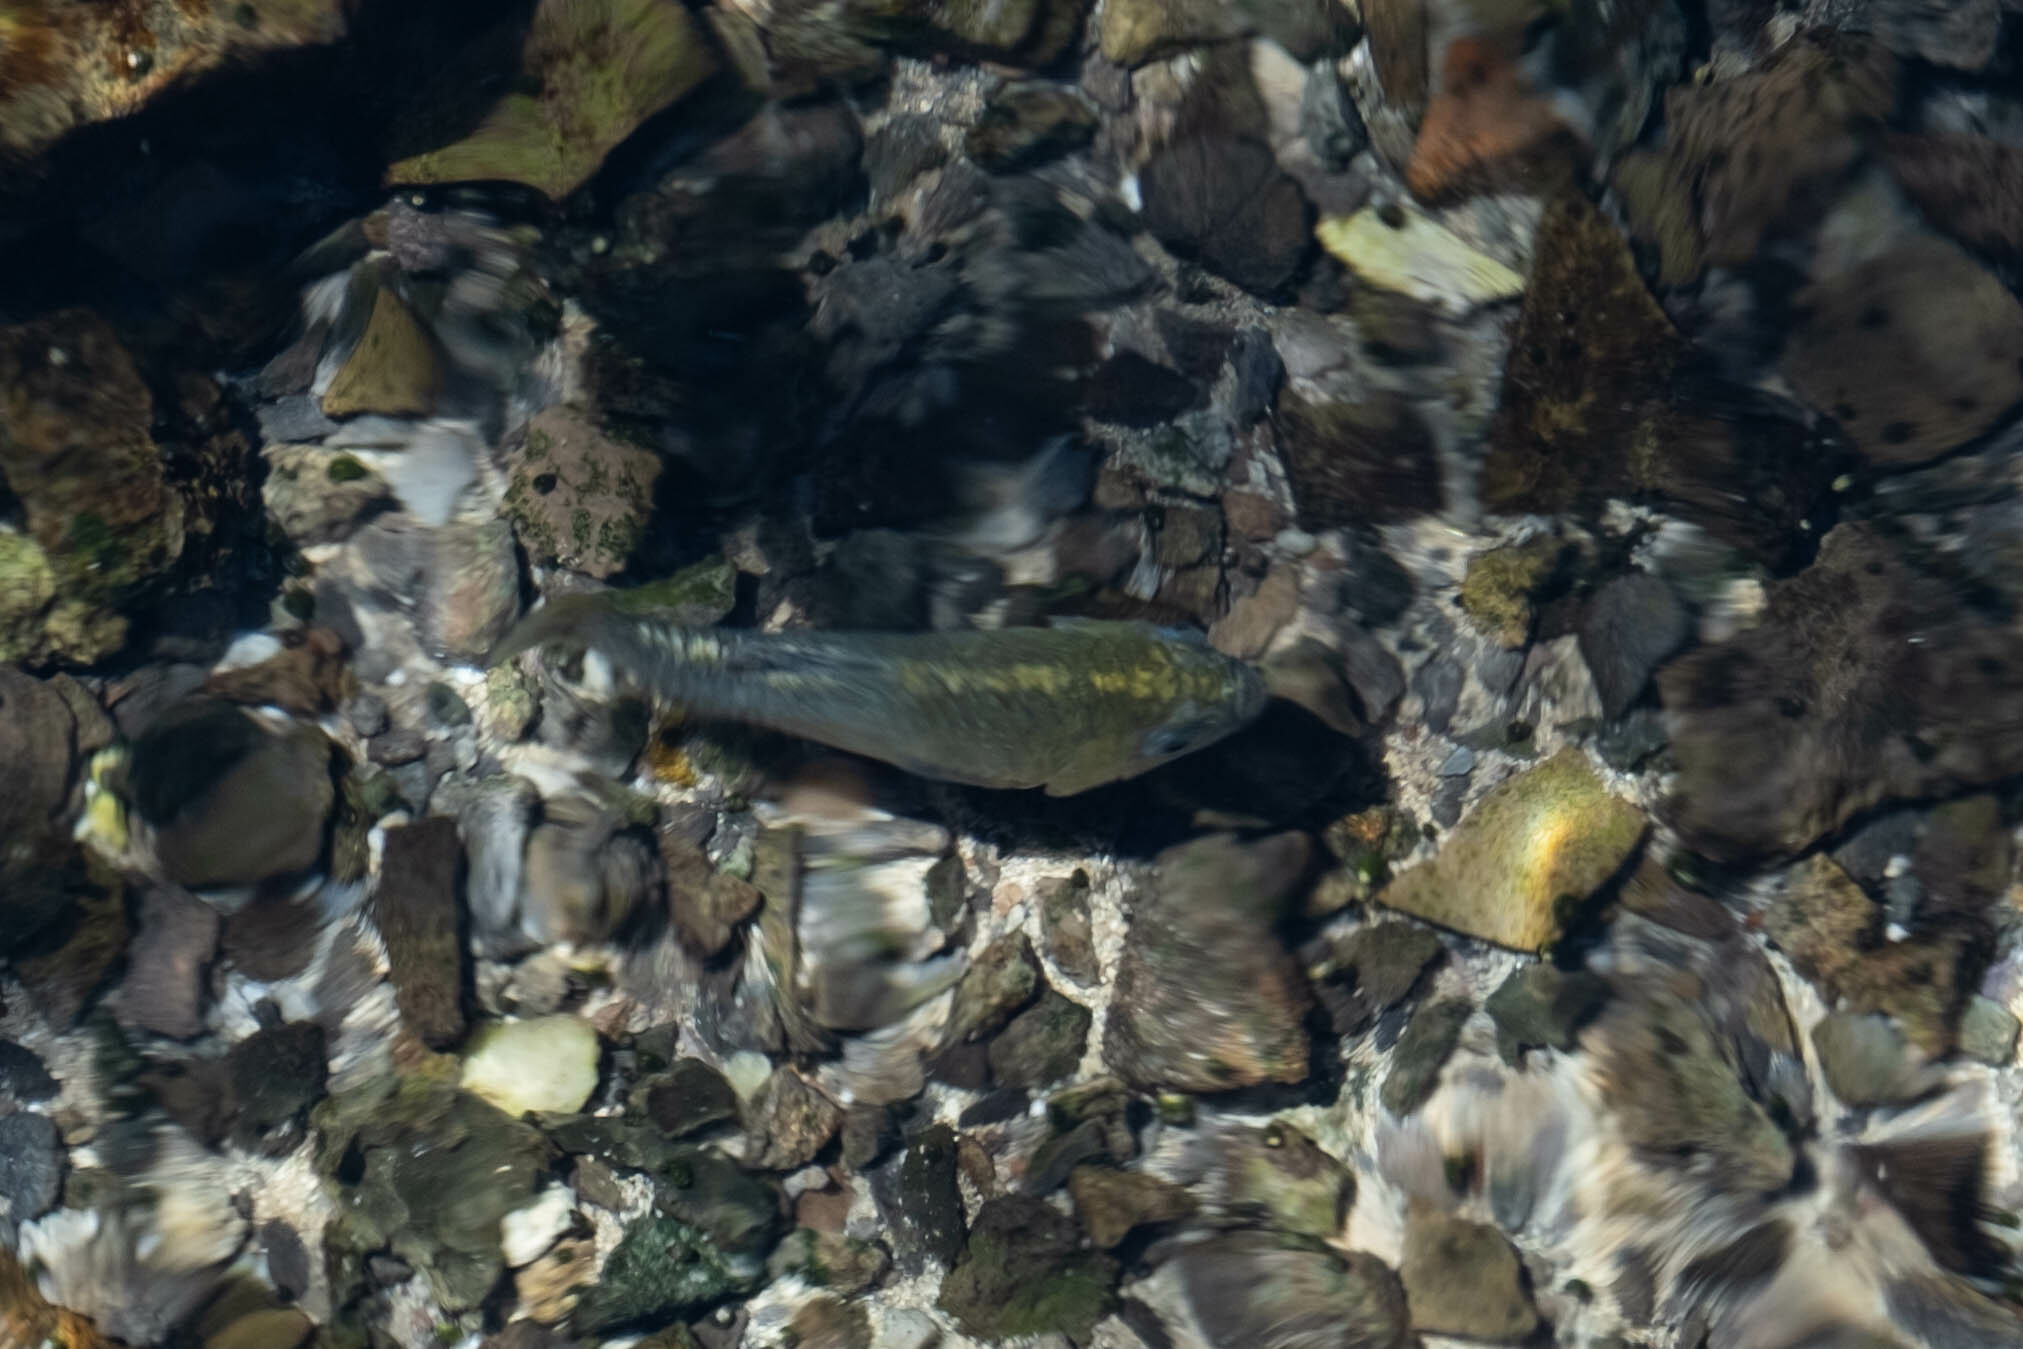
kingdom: Animalia
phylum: Chordata
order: Cyprinodontiformes
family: Cyprinodontidae
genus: Cyprinodon
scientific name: Cyprinodon nevadensis
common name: Amargosa pupfish
